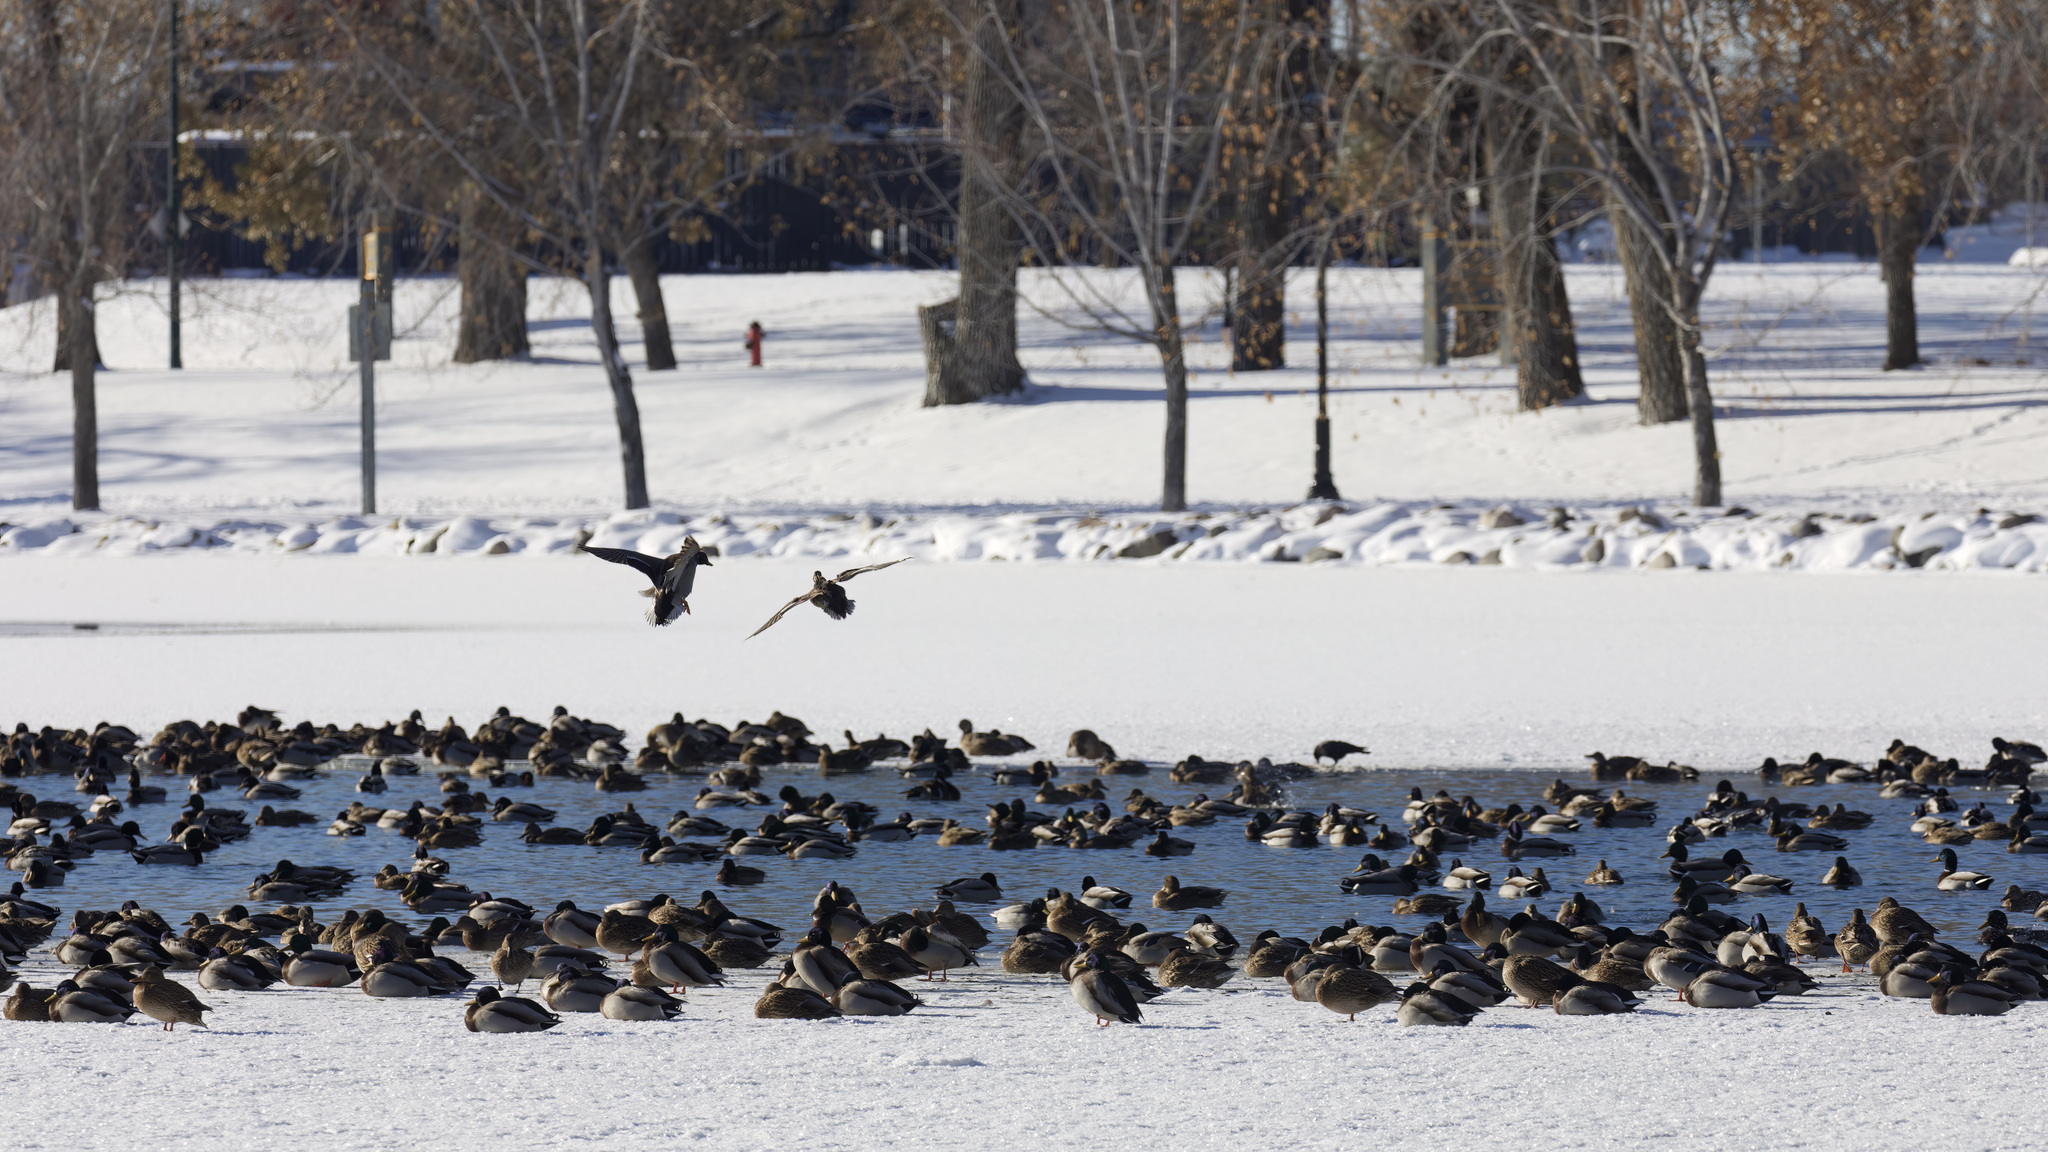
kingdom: Animalia
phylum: Chordata
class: Aves
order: Anseriformes
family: Anatidae
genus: Anas
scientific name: Anas platyrhynchos
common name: Mallard
